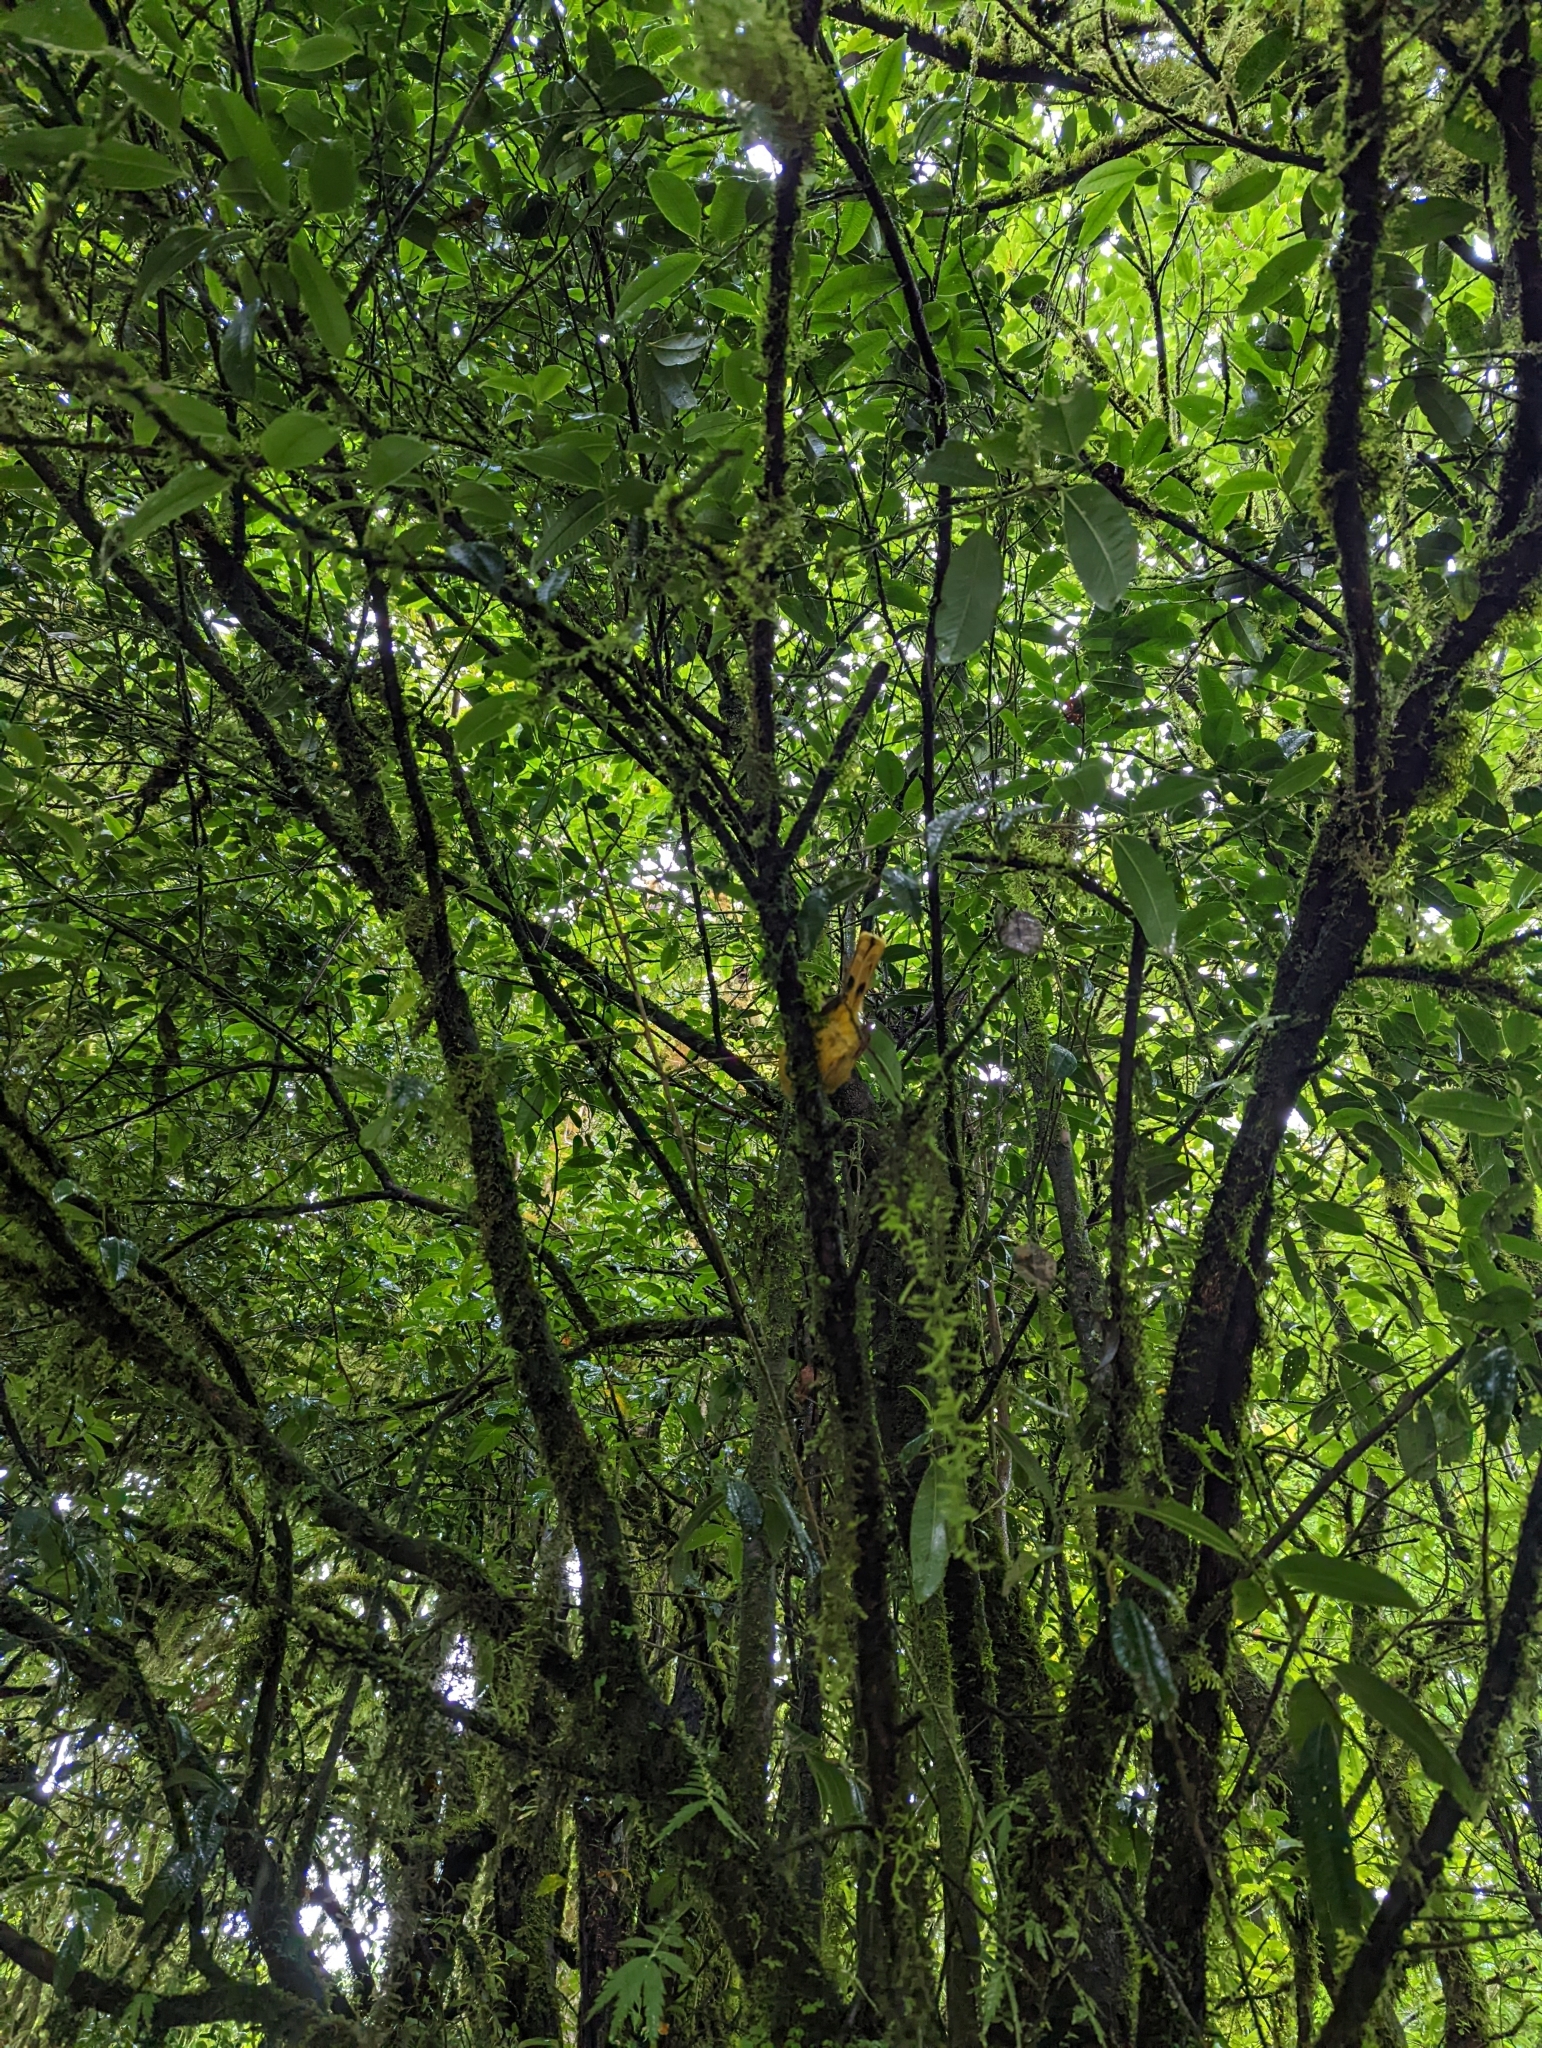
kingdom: Animalia
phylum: Chordata
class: Aves
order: Passeriformes
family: Leiothrichidae
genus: Minla
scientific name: Minla strigula
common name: Chestnut-tailed minla
